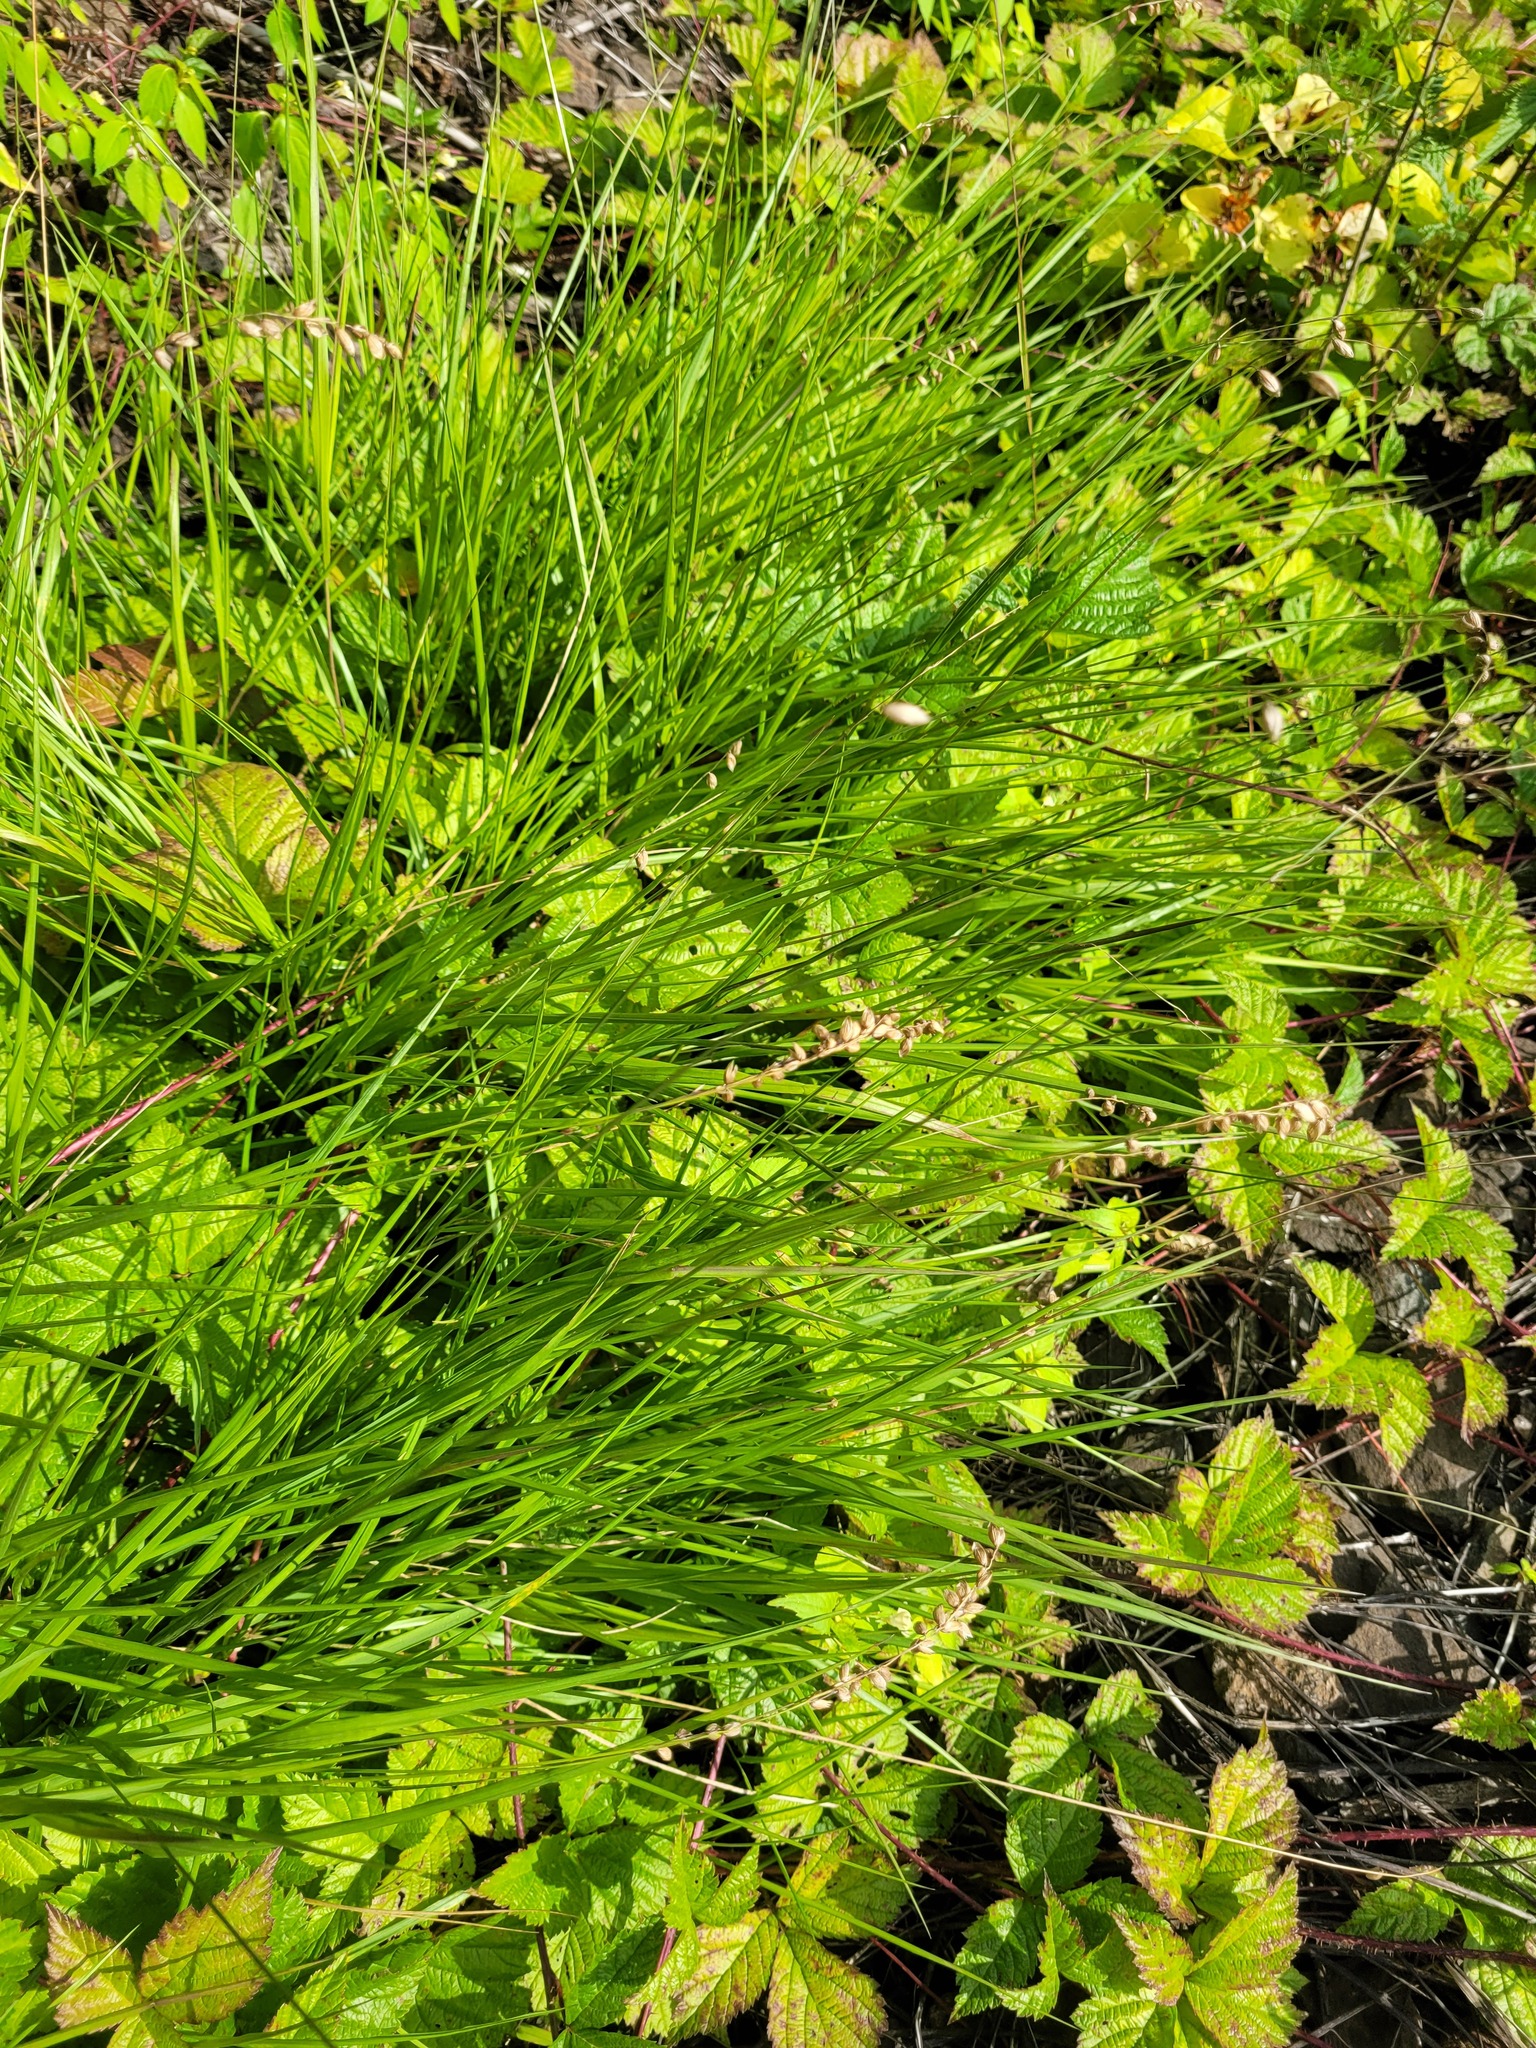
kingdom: Plantae
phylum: Tracheophyta
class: Liliopsida
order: Poales
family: Poaceae
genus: Melica
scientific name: Melica nutans
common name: Mountain melick
